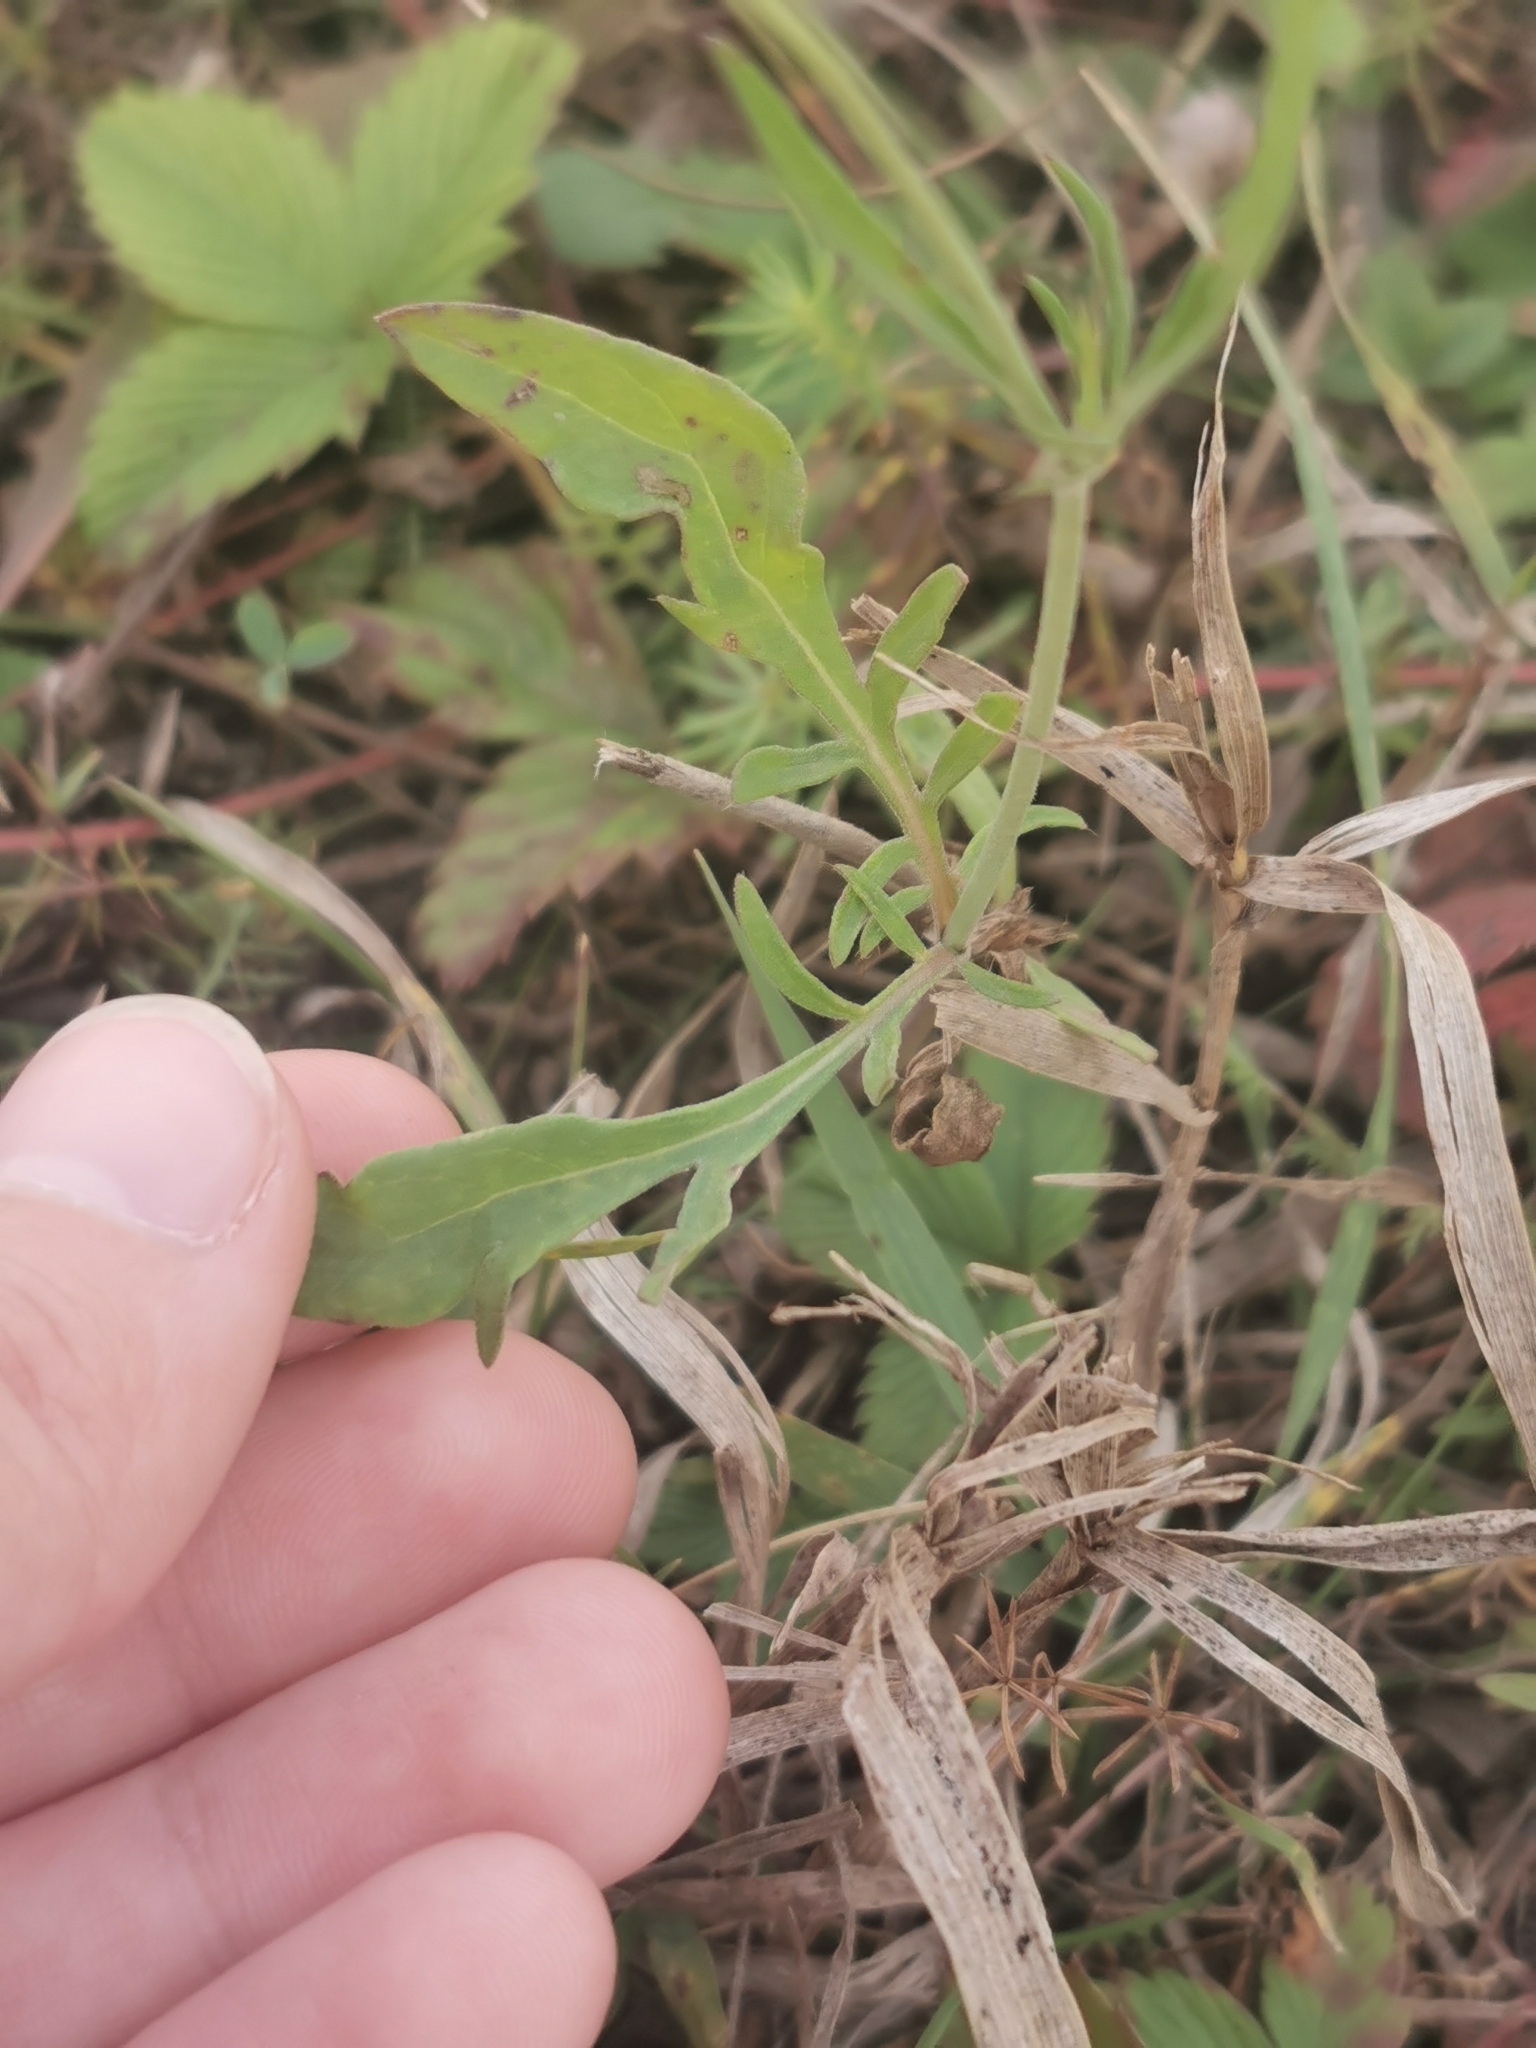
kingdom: Plantae
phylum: Tracheophyta
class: Magnoliopsida
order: Dipsacales
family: Caprifoliaceae
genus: Scabiosa
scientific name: Scabiosa ochroleuca
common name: Cream pincushions
